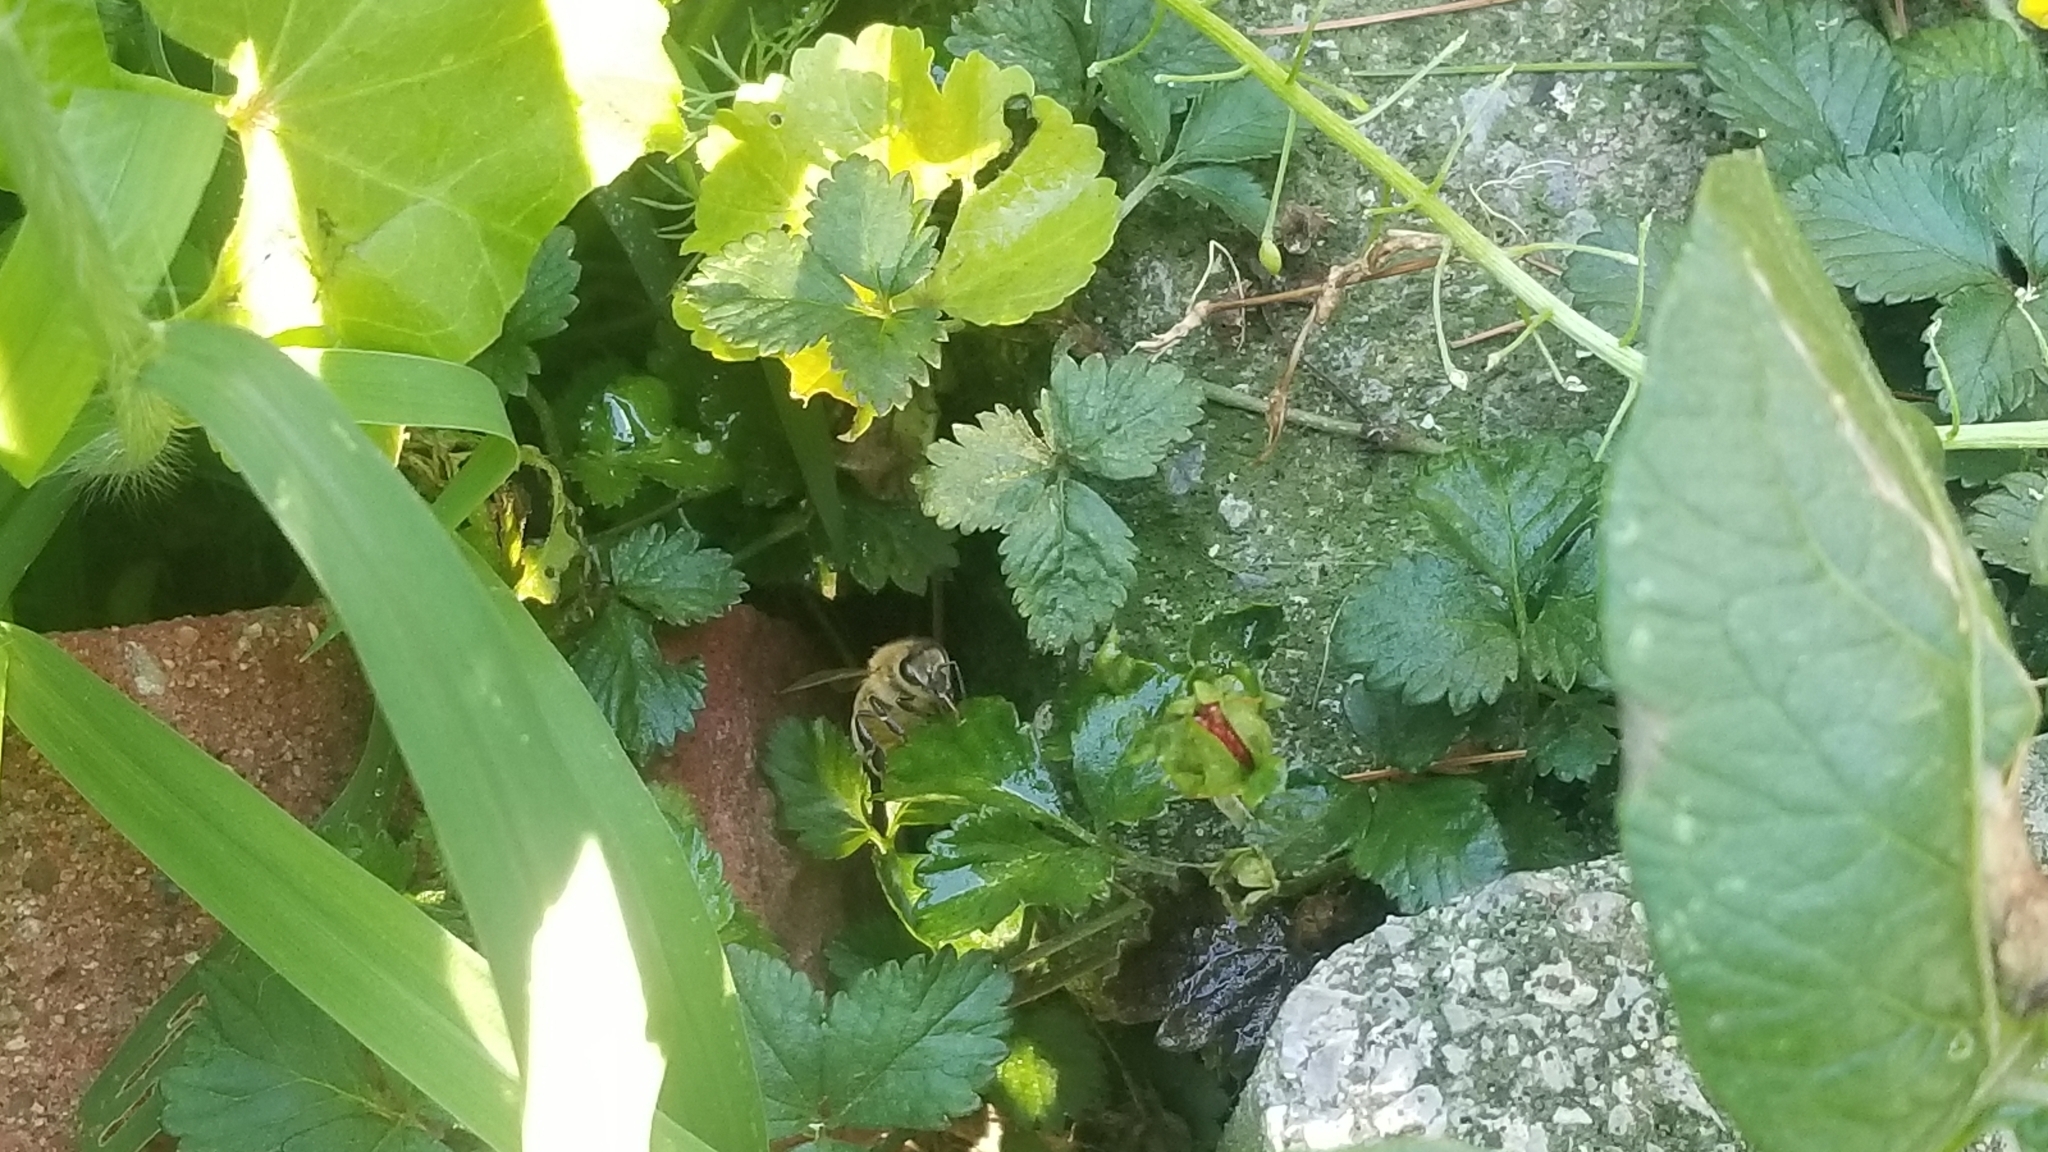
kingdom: Animalia
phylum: Arthropoda
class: Insecta
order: Hymenoptera
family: Apidae
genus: Apis
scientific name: Apis mellifera
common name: Honey bee
